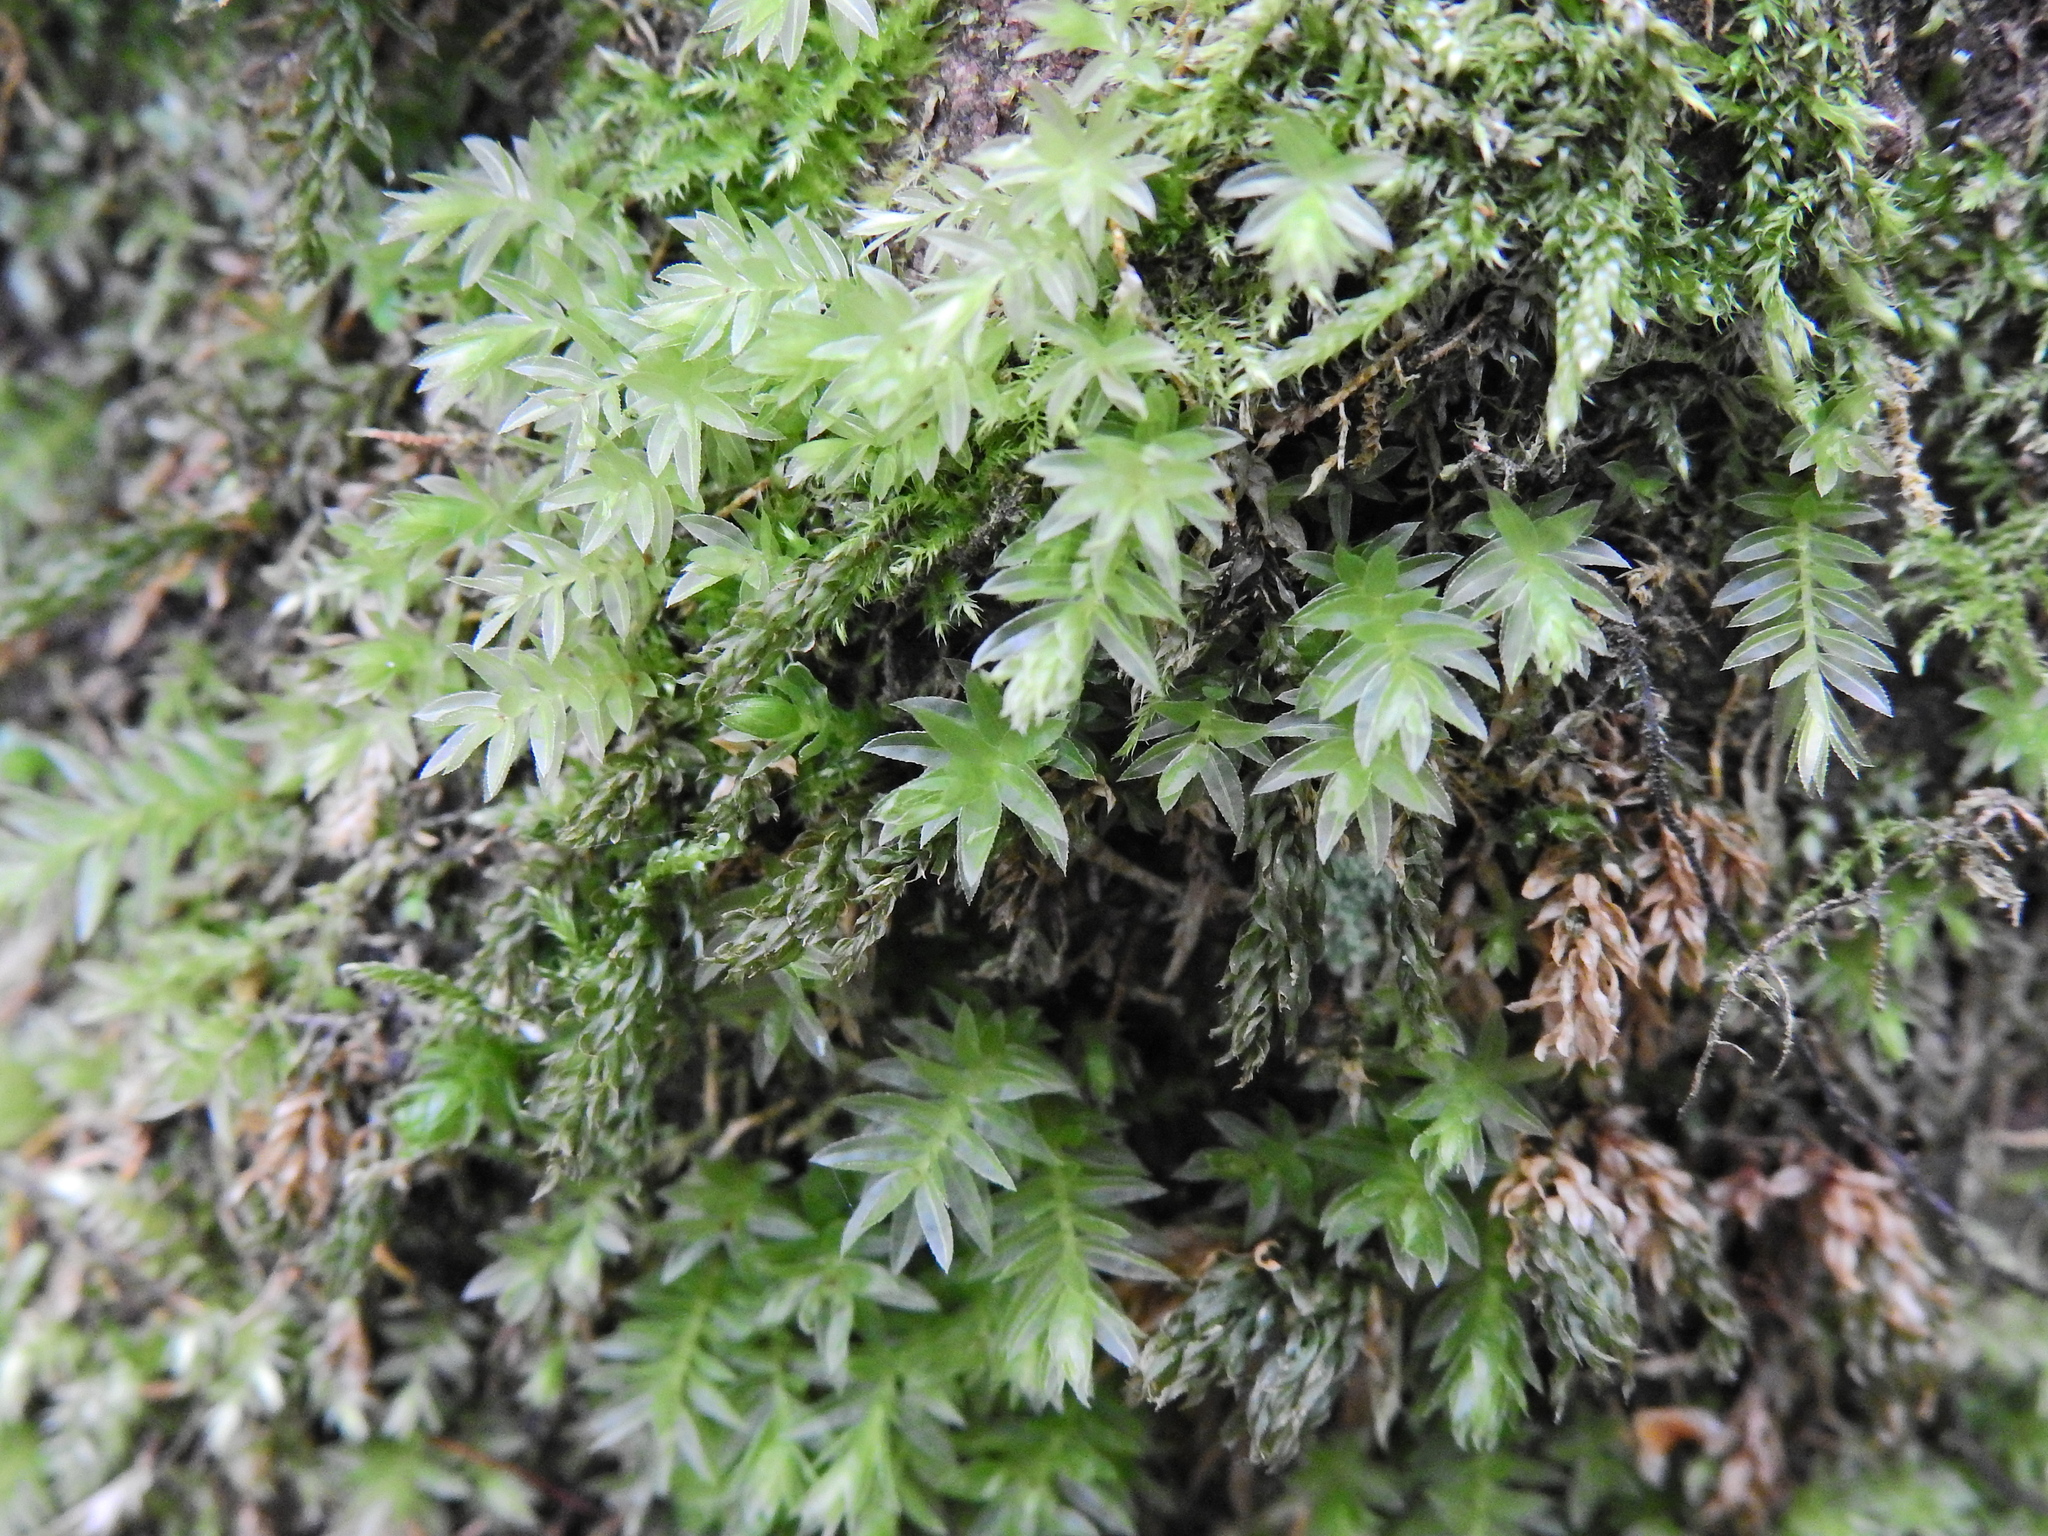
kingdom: Plantae
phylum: Bryophyta
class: Bryopsida
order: Bryales
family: Mniaceae
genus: Mnium
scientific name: Mnium hornum
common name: Swan's-neck leafy moss
